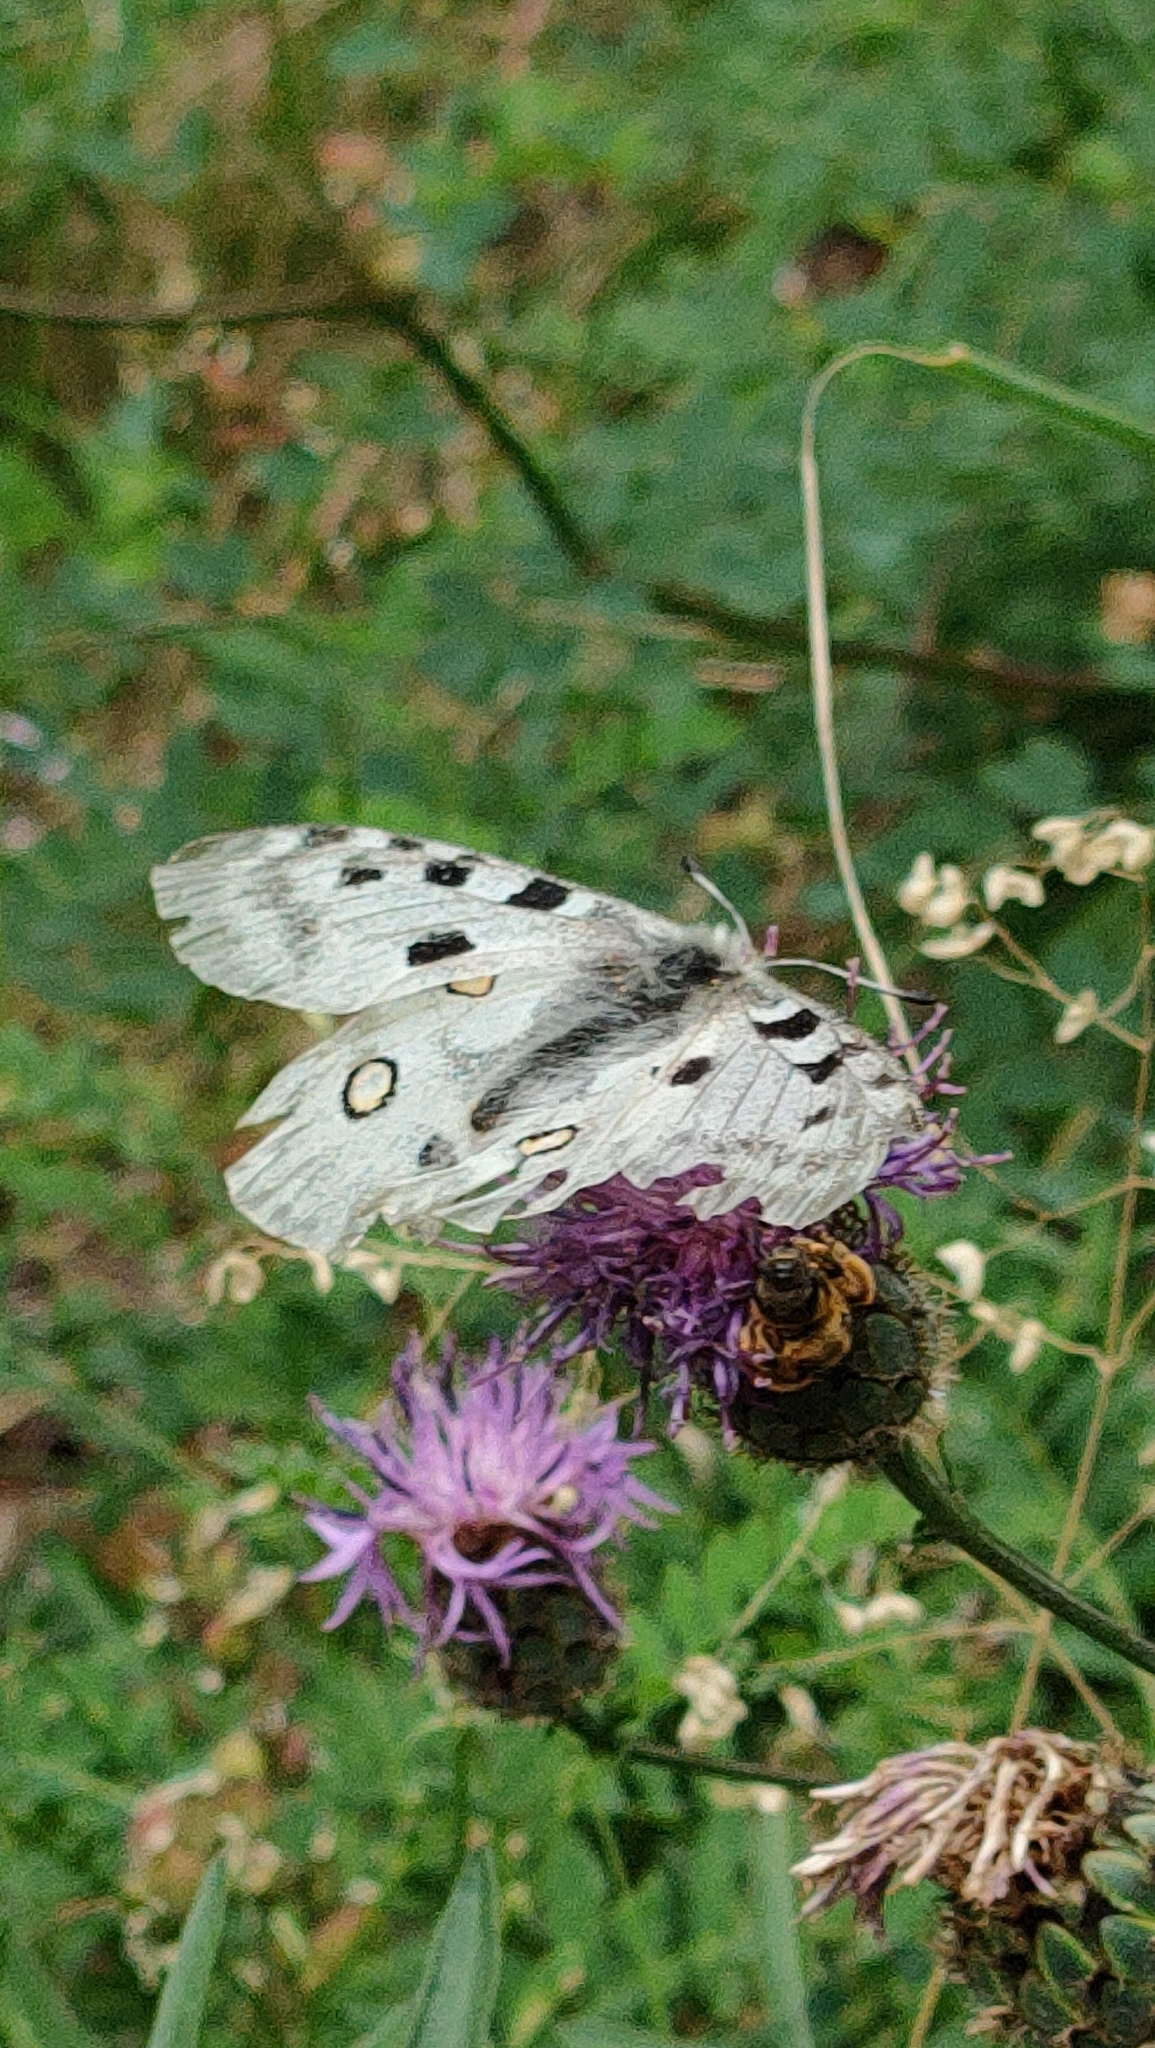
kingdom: Animalia
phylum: Arthropoda
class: Insecta
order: Lepidoptera
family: Papilionidae
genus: Parnassius
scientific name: Parnassius apollo
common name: Apollo
